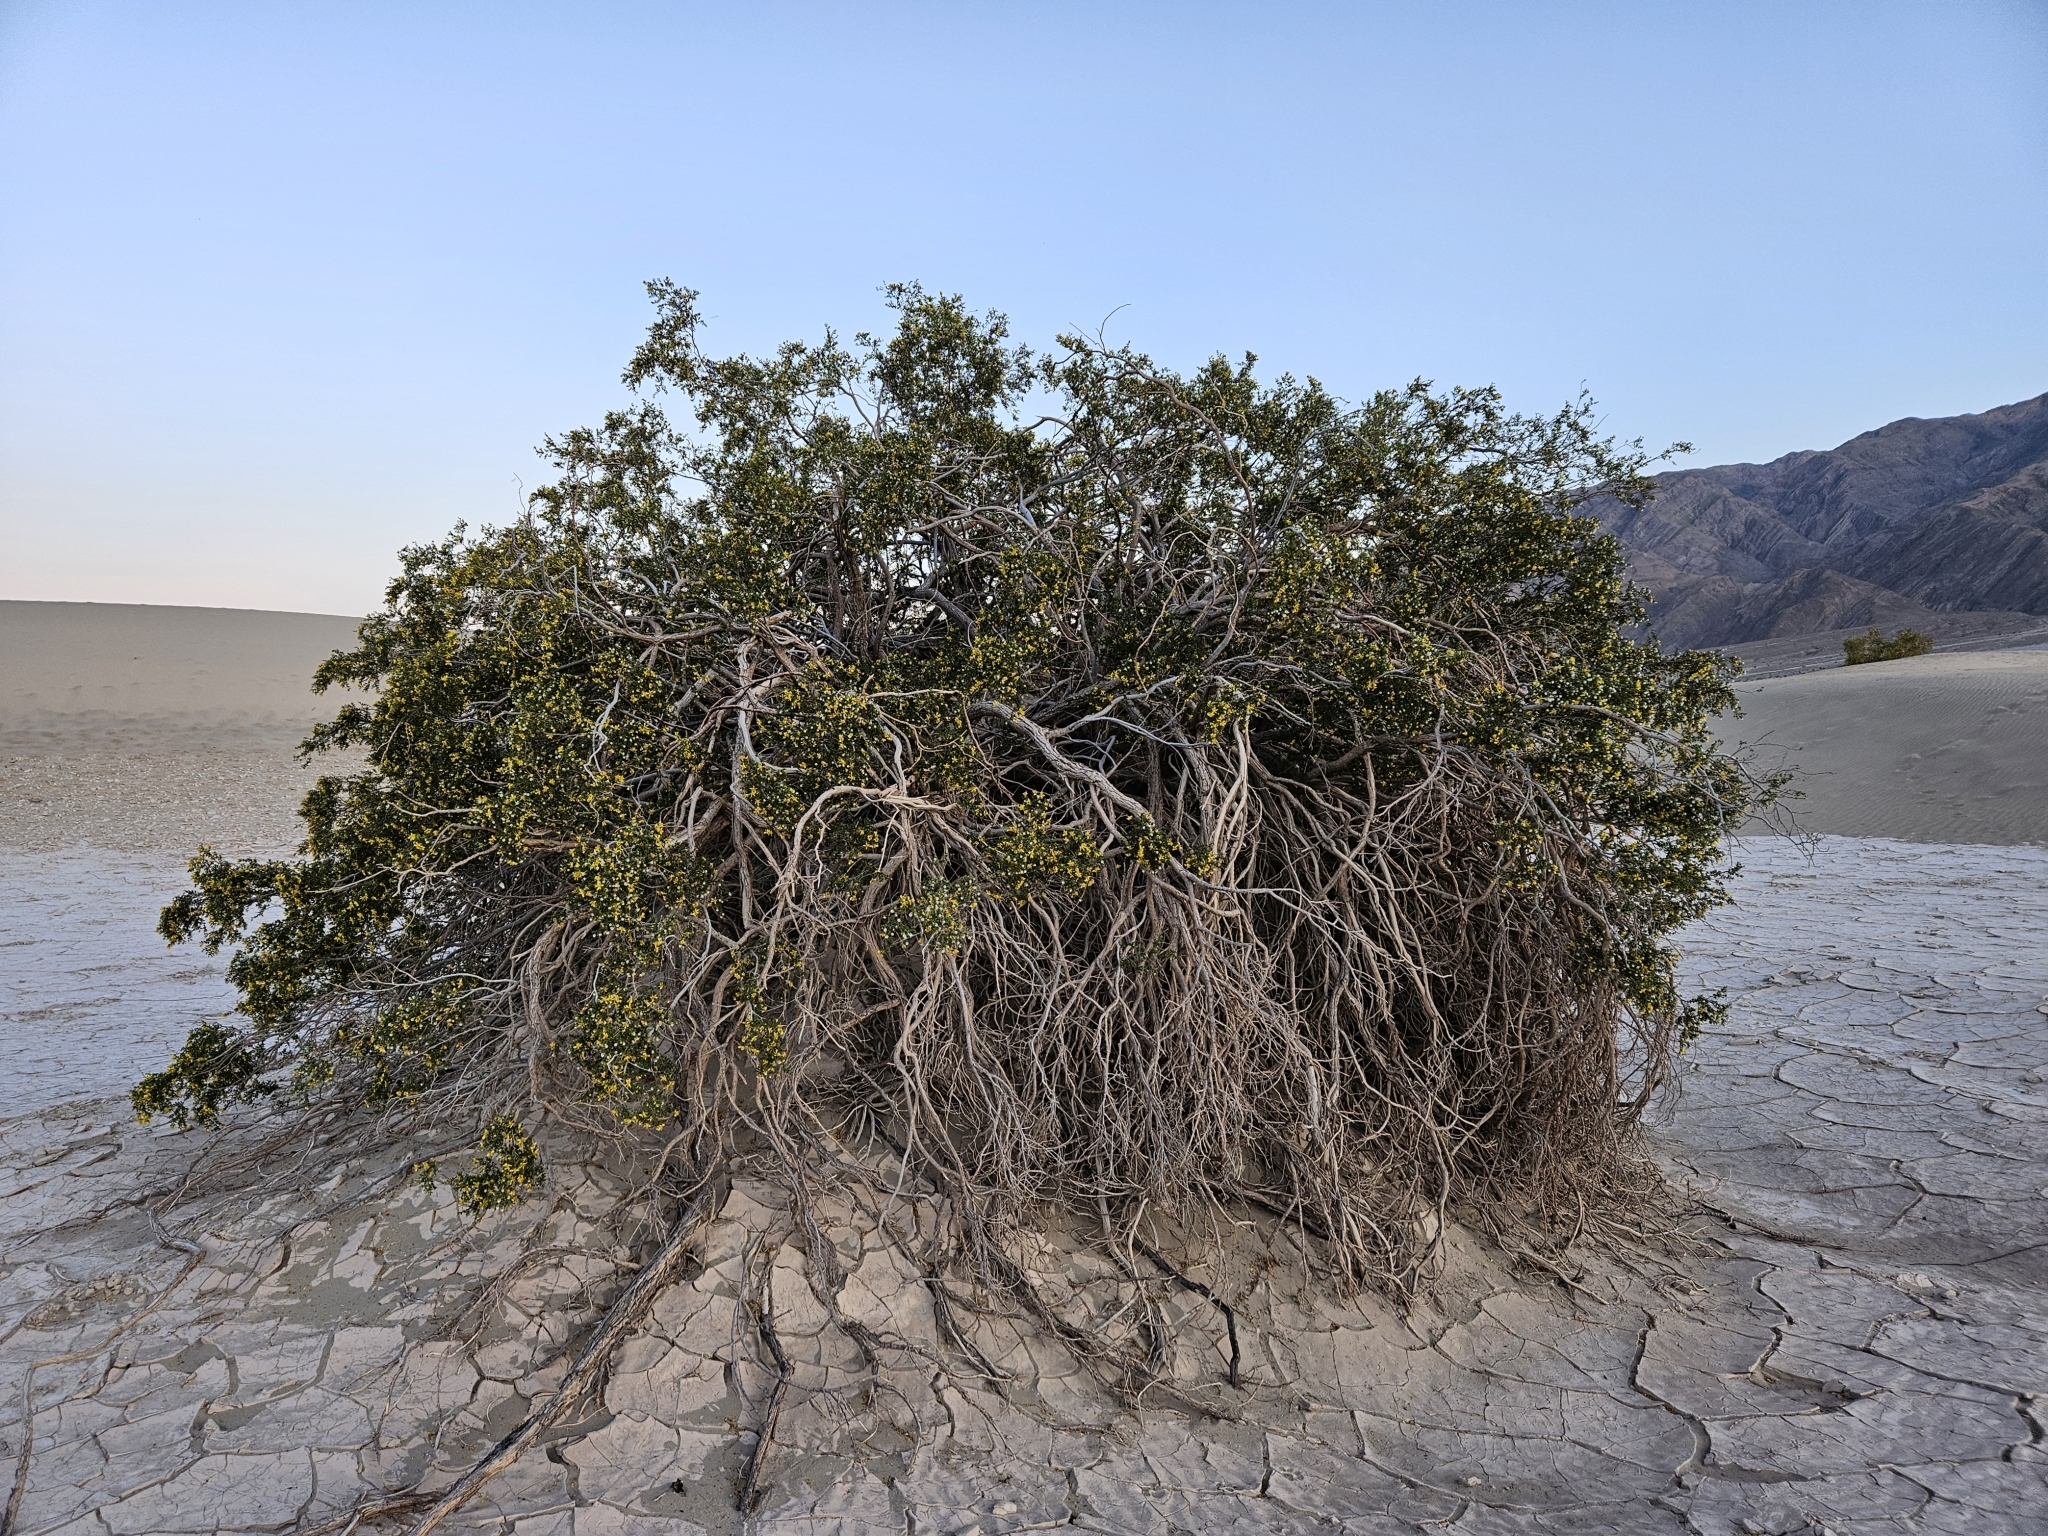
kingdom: Plantae
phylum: Tracheophyta
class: Magnoliopsida
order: Zygophyllales
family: Zygophyllaceae
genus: Larrea
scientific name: Larrea tridentata
